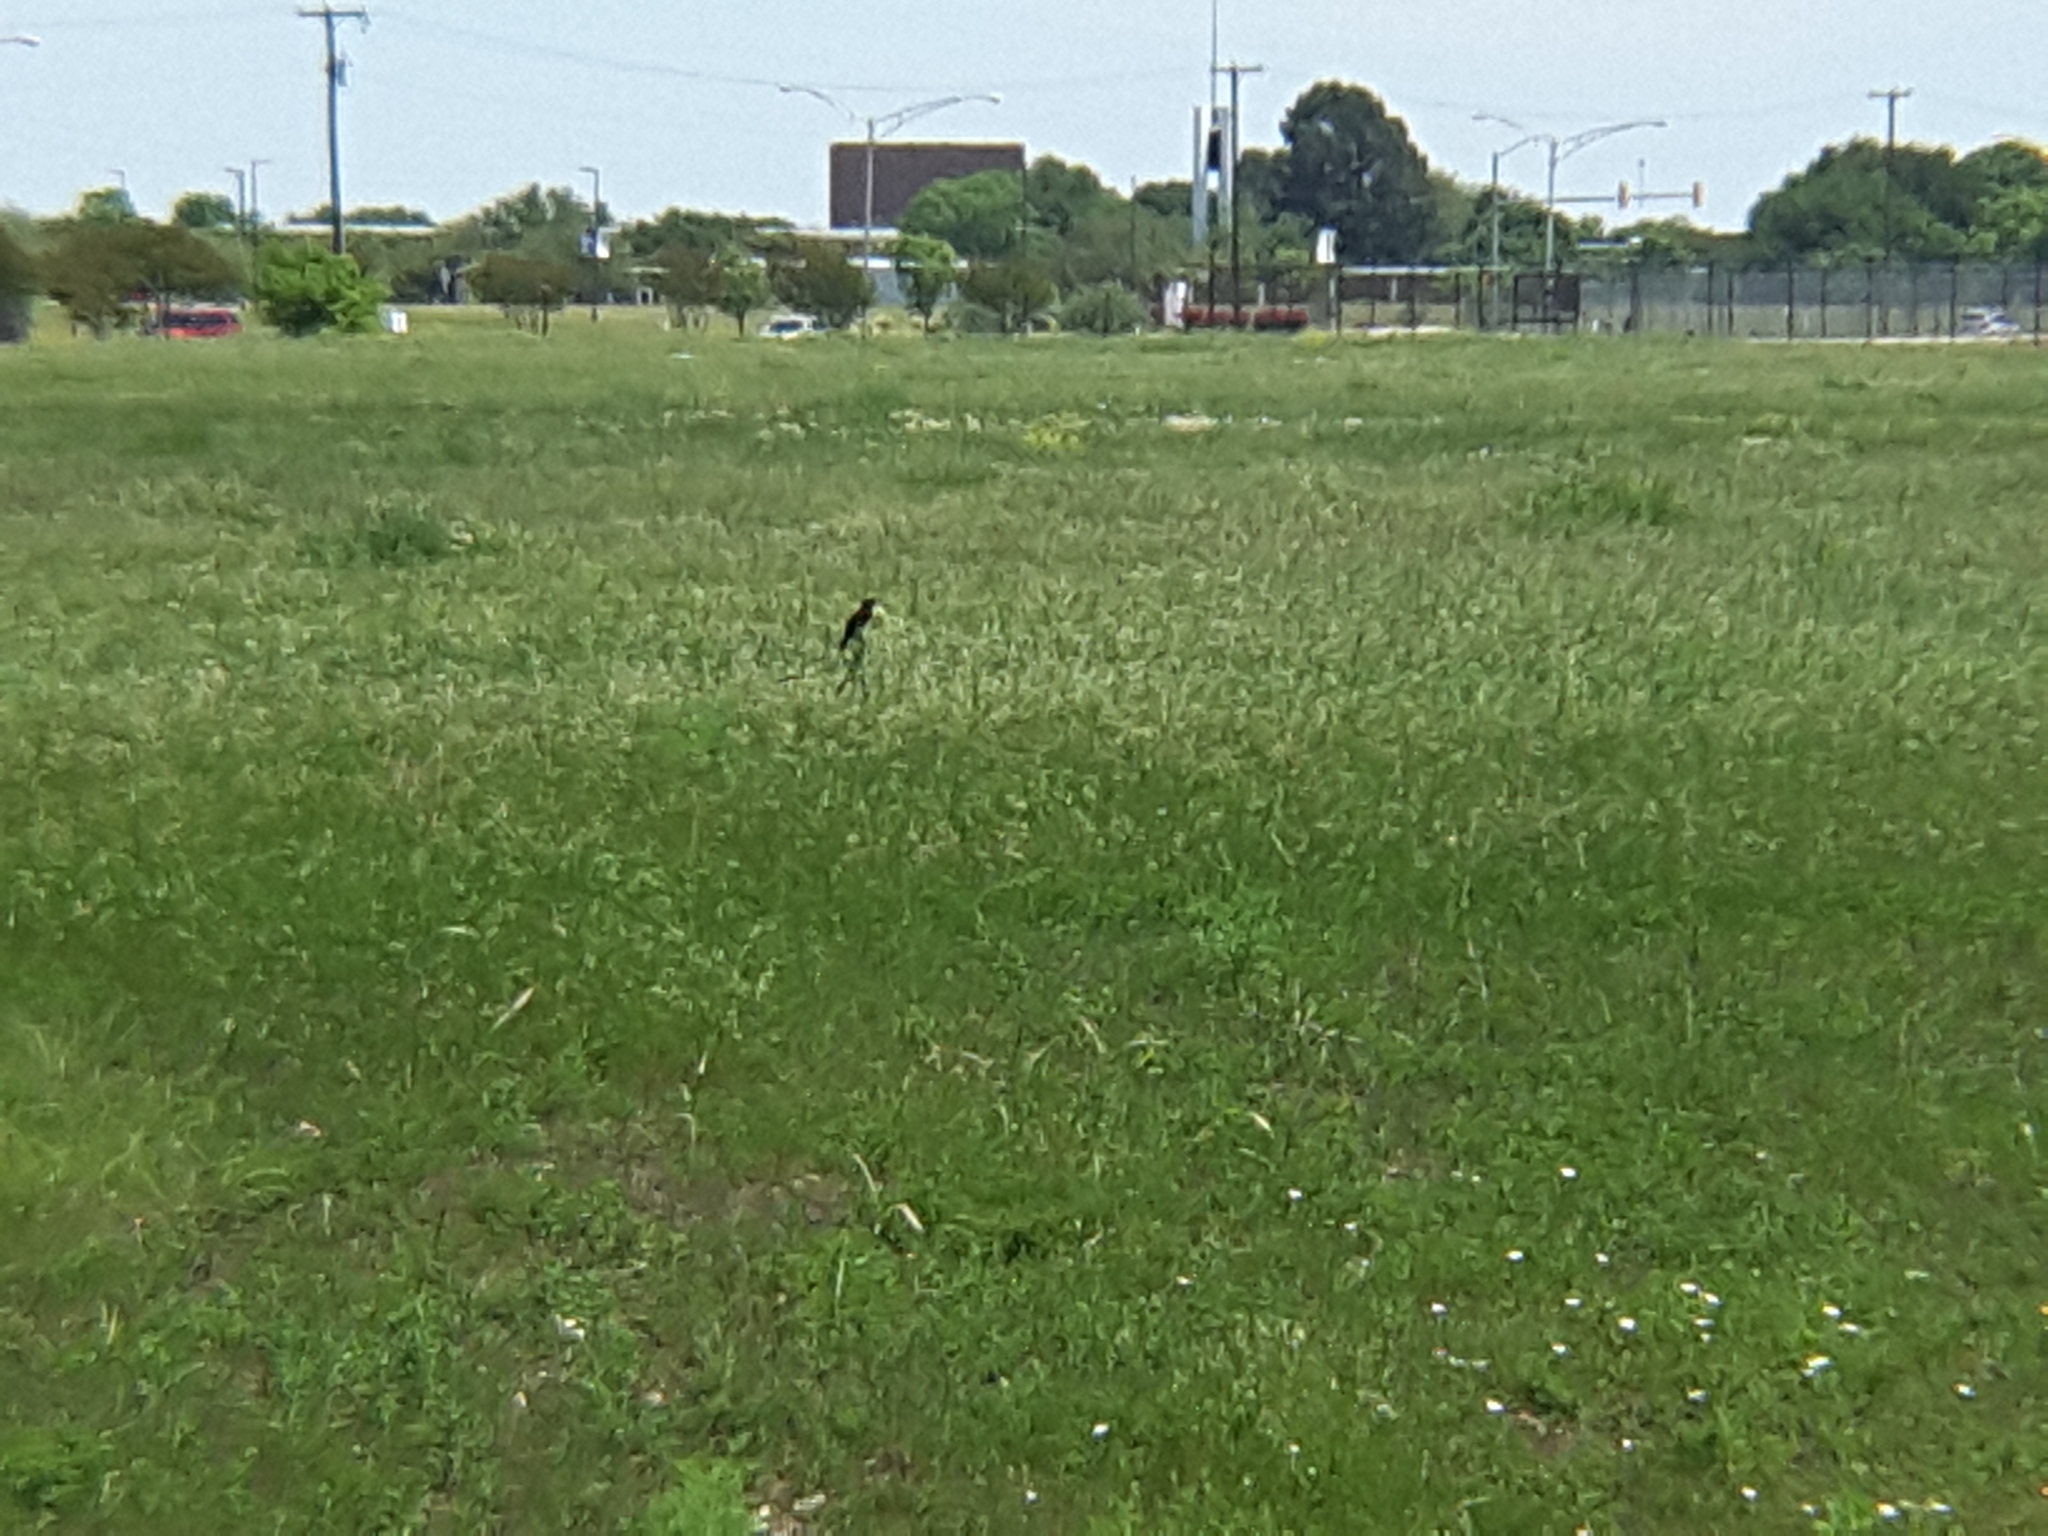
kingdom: Animalia
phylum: Chordata
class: Aves
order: Passeriformes
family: Icteridae
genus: Agelaius
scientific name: Agelaius phoeniceus
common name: Red-winged blackbird
